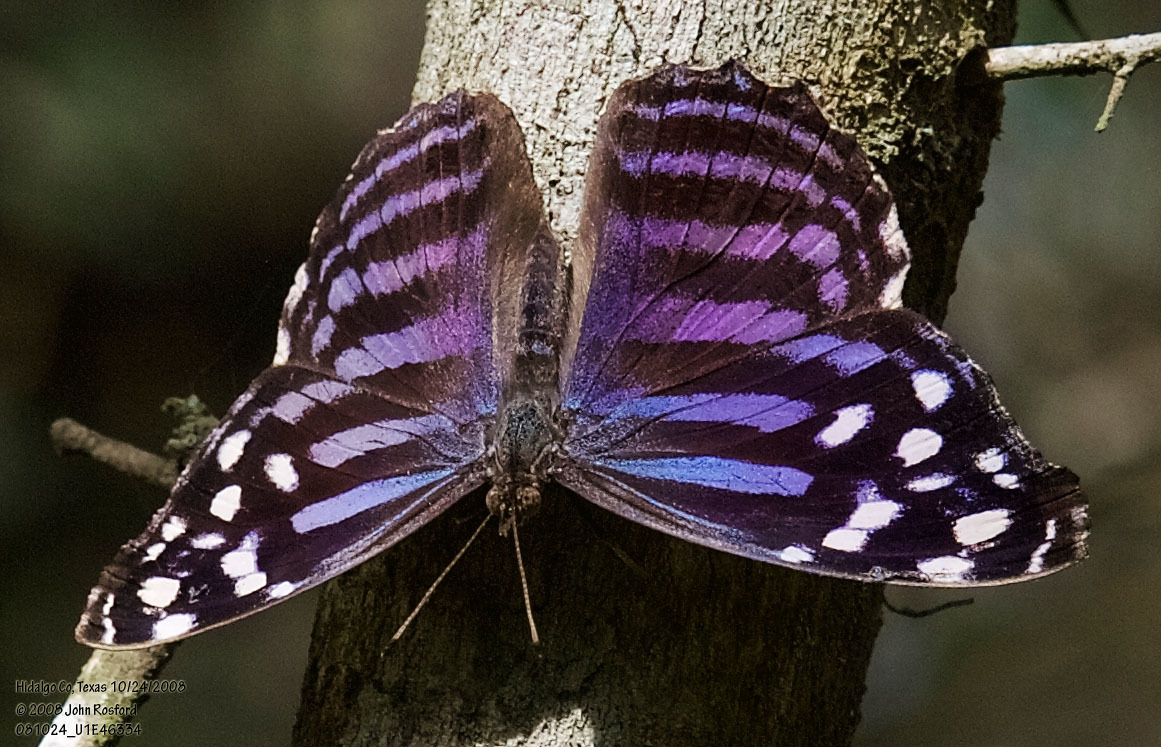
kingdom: Animalia
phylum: Arthropoda
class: Insecta
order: Lepidoptera
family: Nymphalidae
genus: Myscelia
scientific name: Myscelia ethusa
